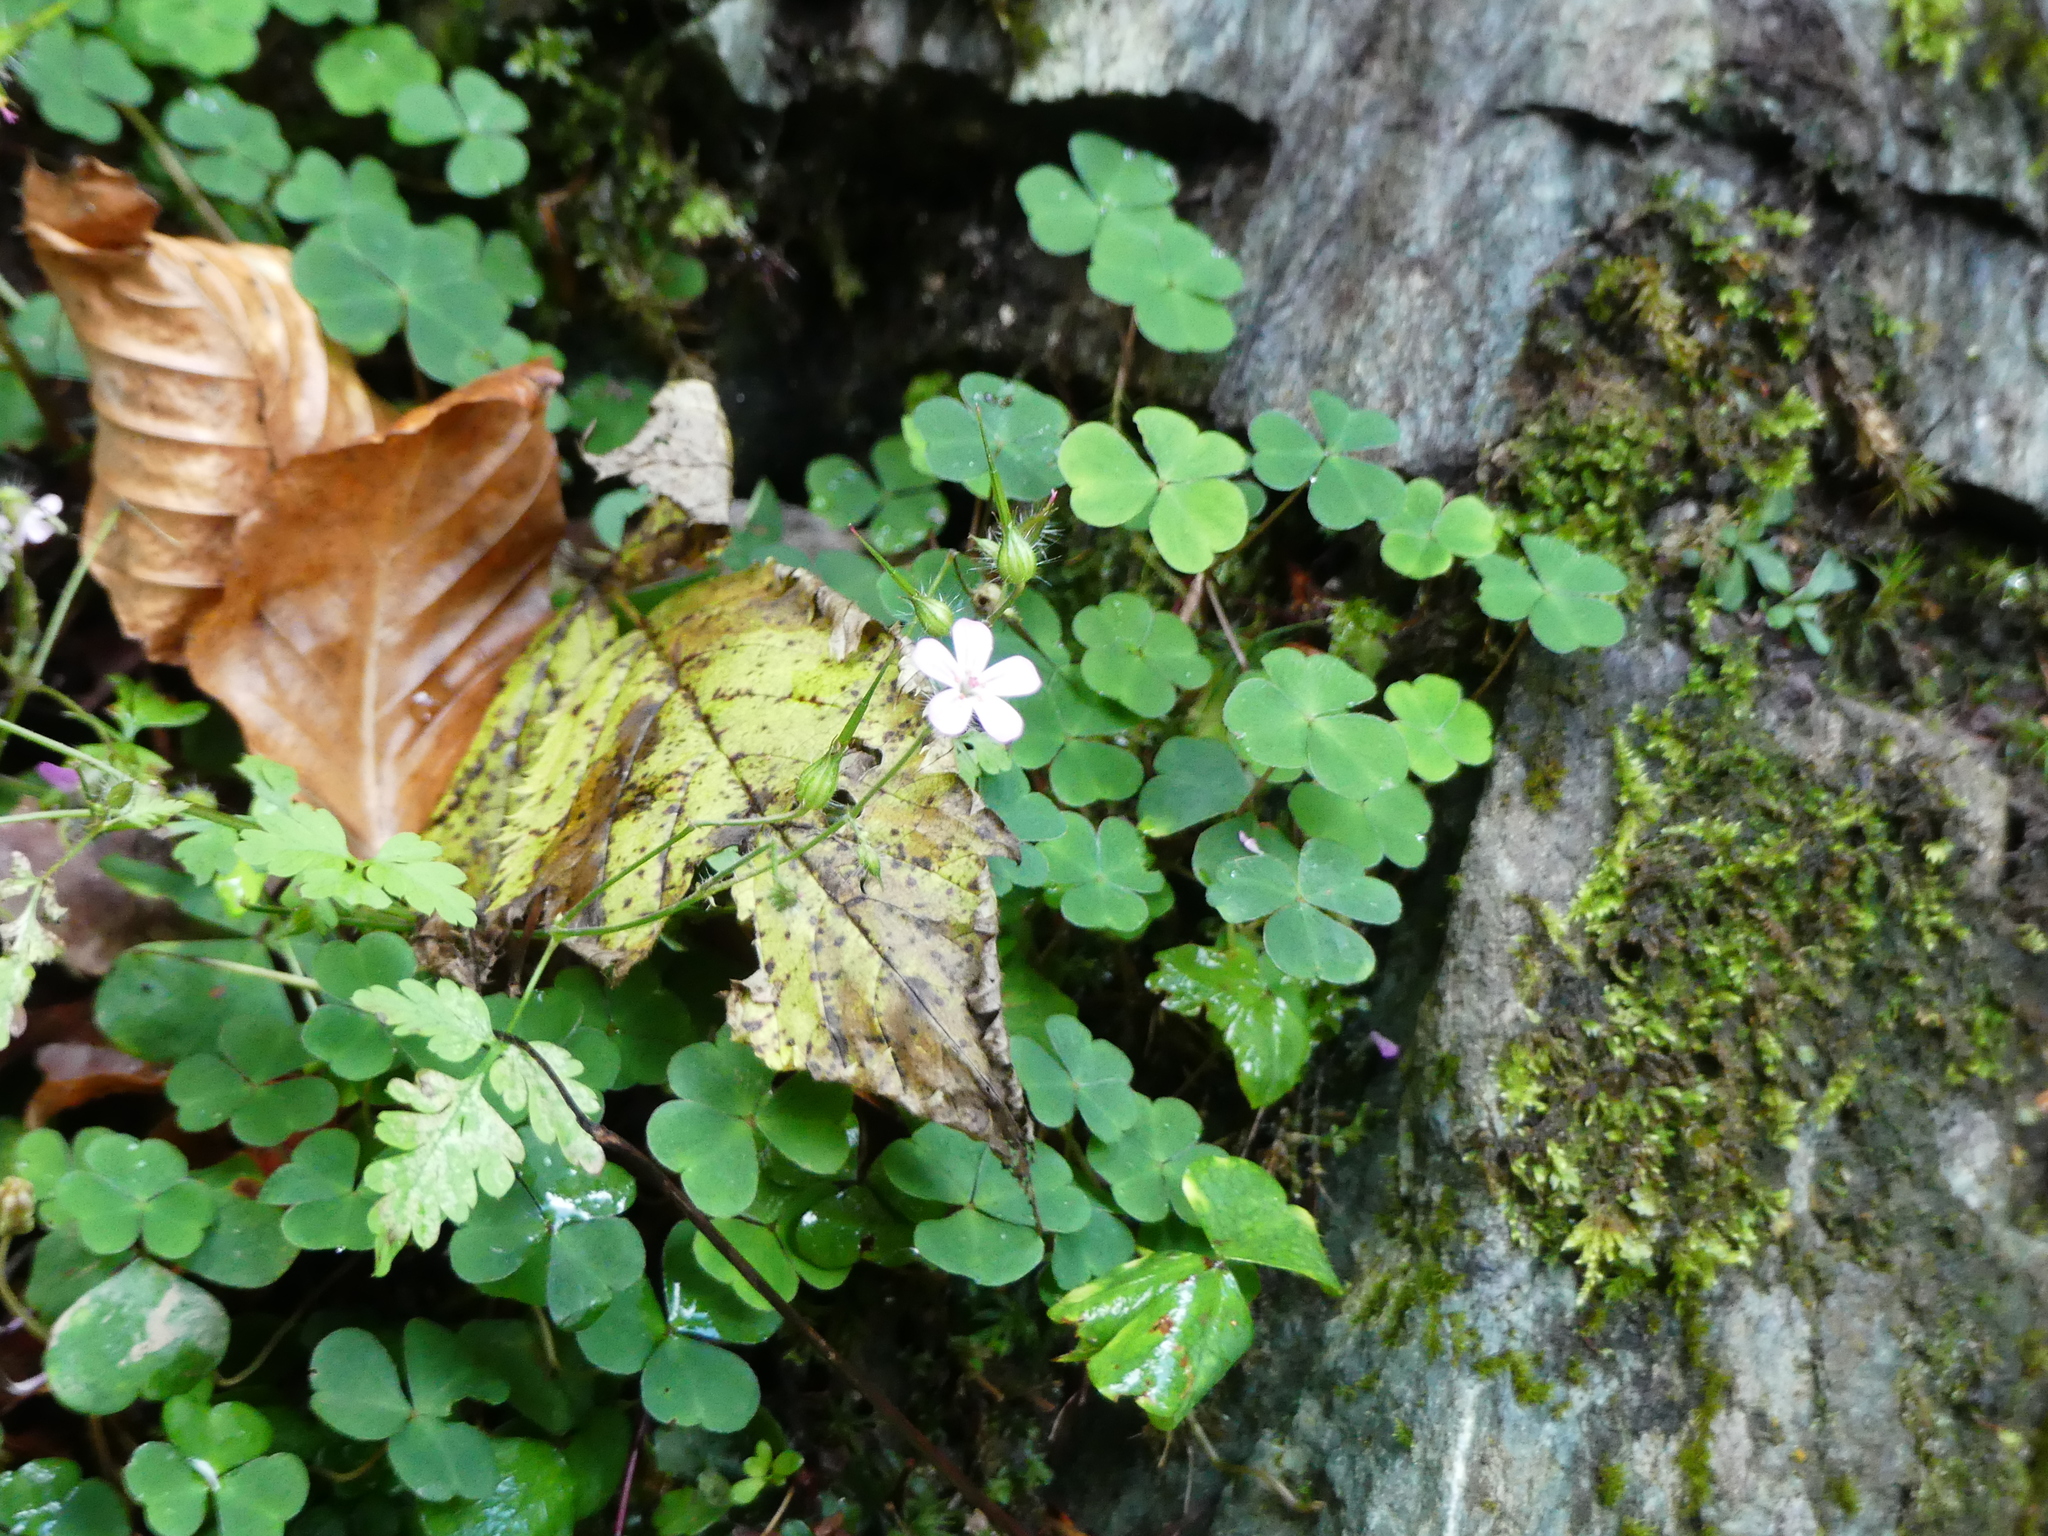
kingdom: Plantae
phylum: Tracheophyta
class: Magnoliopsida
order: Oxalidales
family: Oxalidaceae
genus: Oxalis
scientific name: Oxalis acetosella
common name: Wood-sorrel
